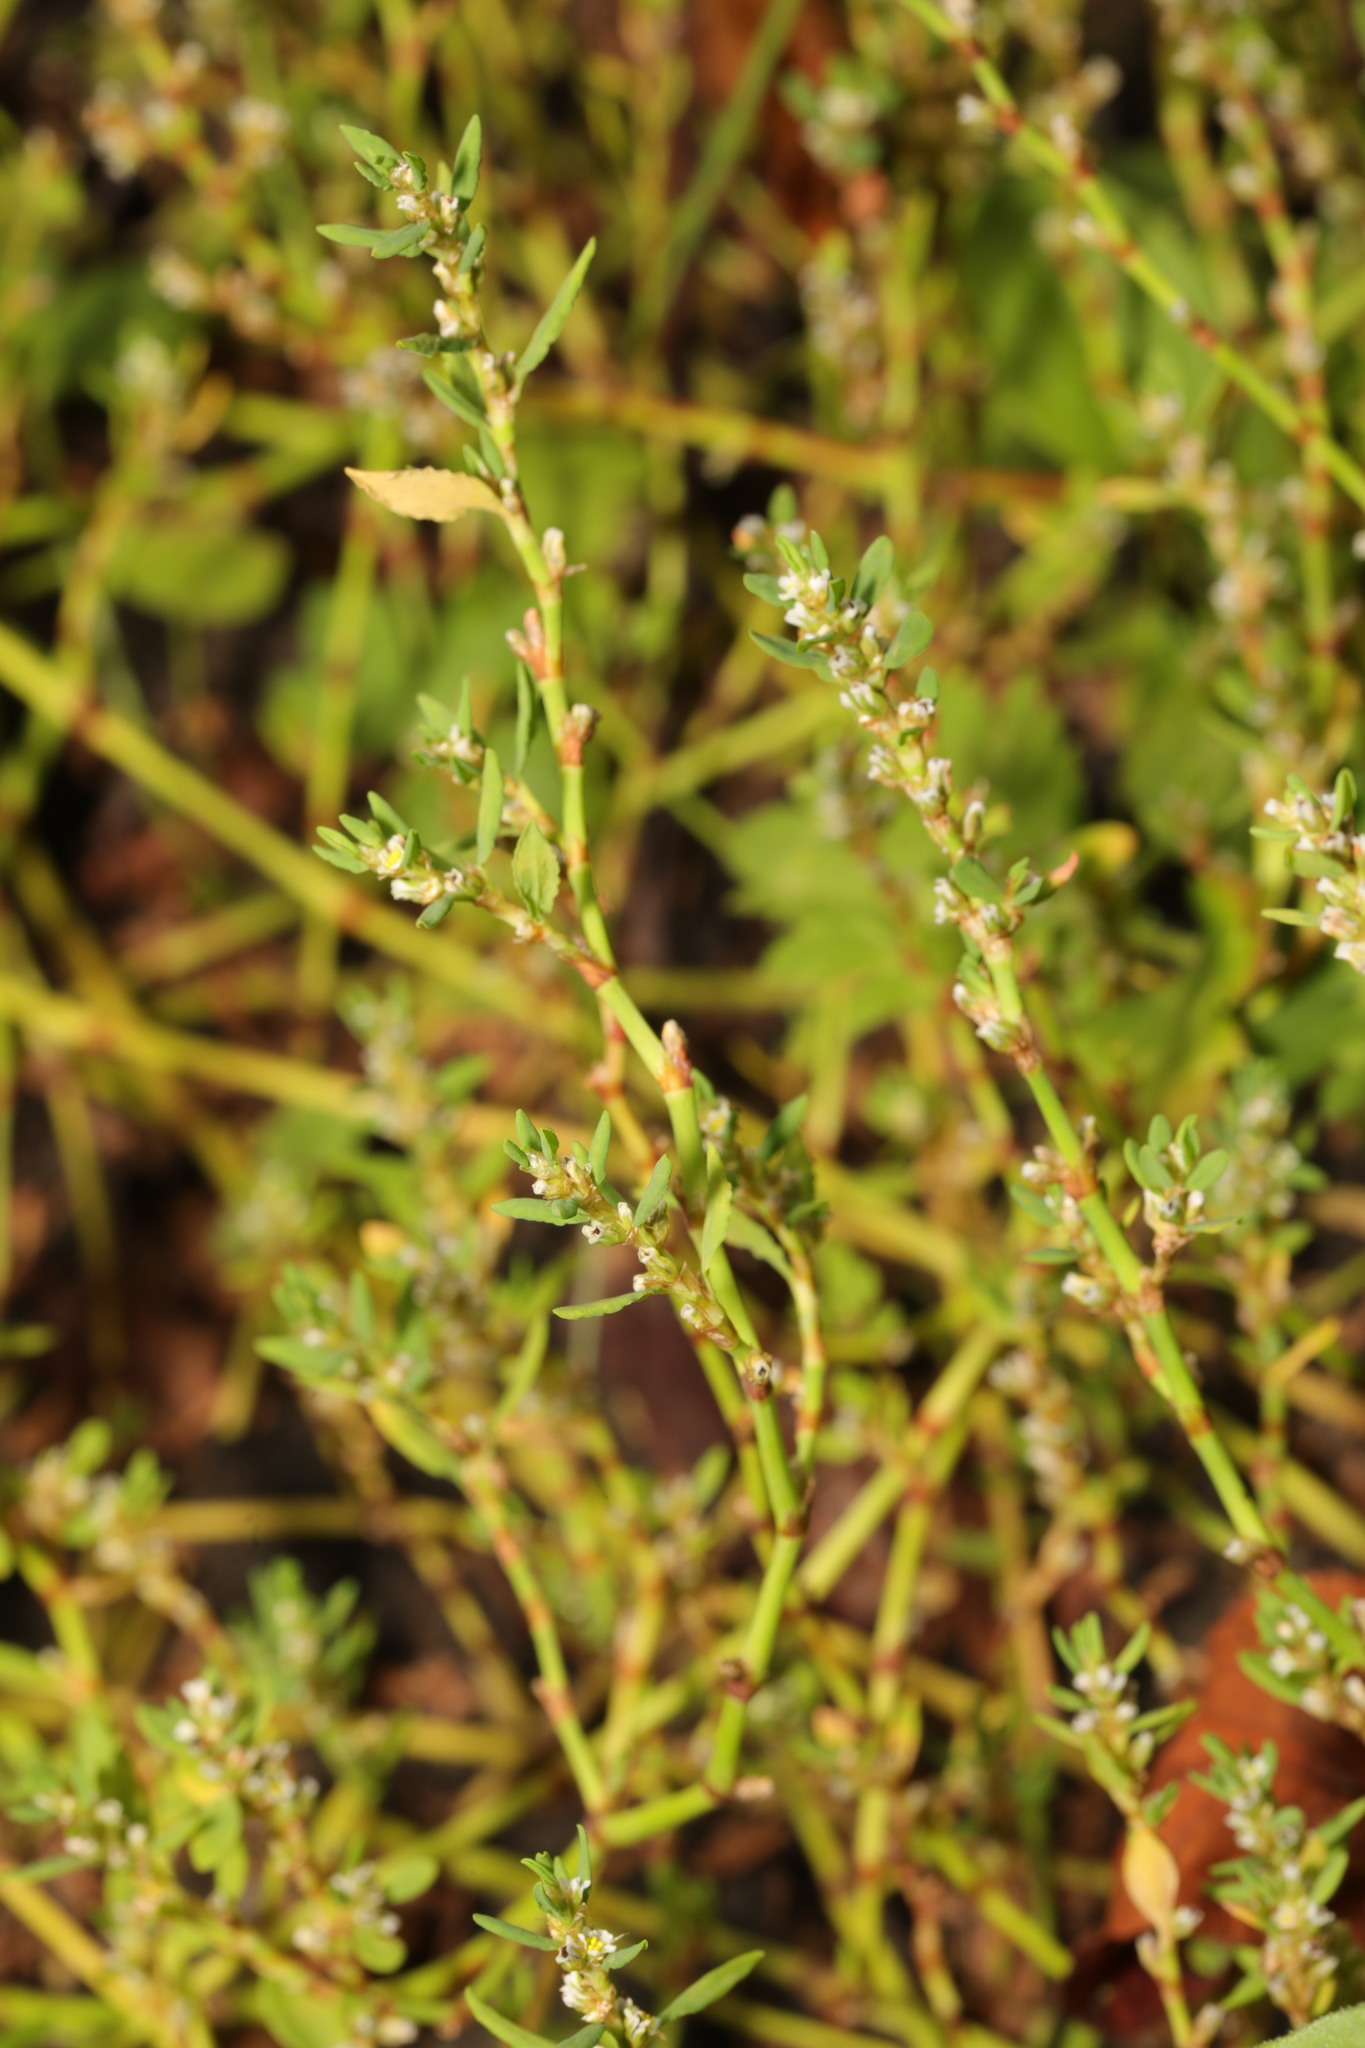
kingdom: Plantae
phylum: Tracheophyta
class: Magnoliopsida
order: Caryophyllales
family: Polygonaceae
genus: Polygonum
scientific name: Polygonum aviculare
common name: Prostrate knotweed
